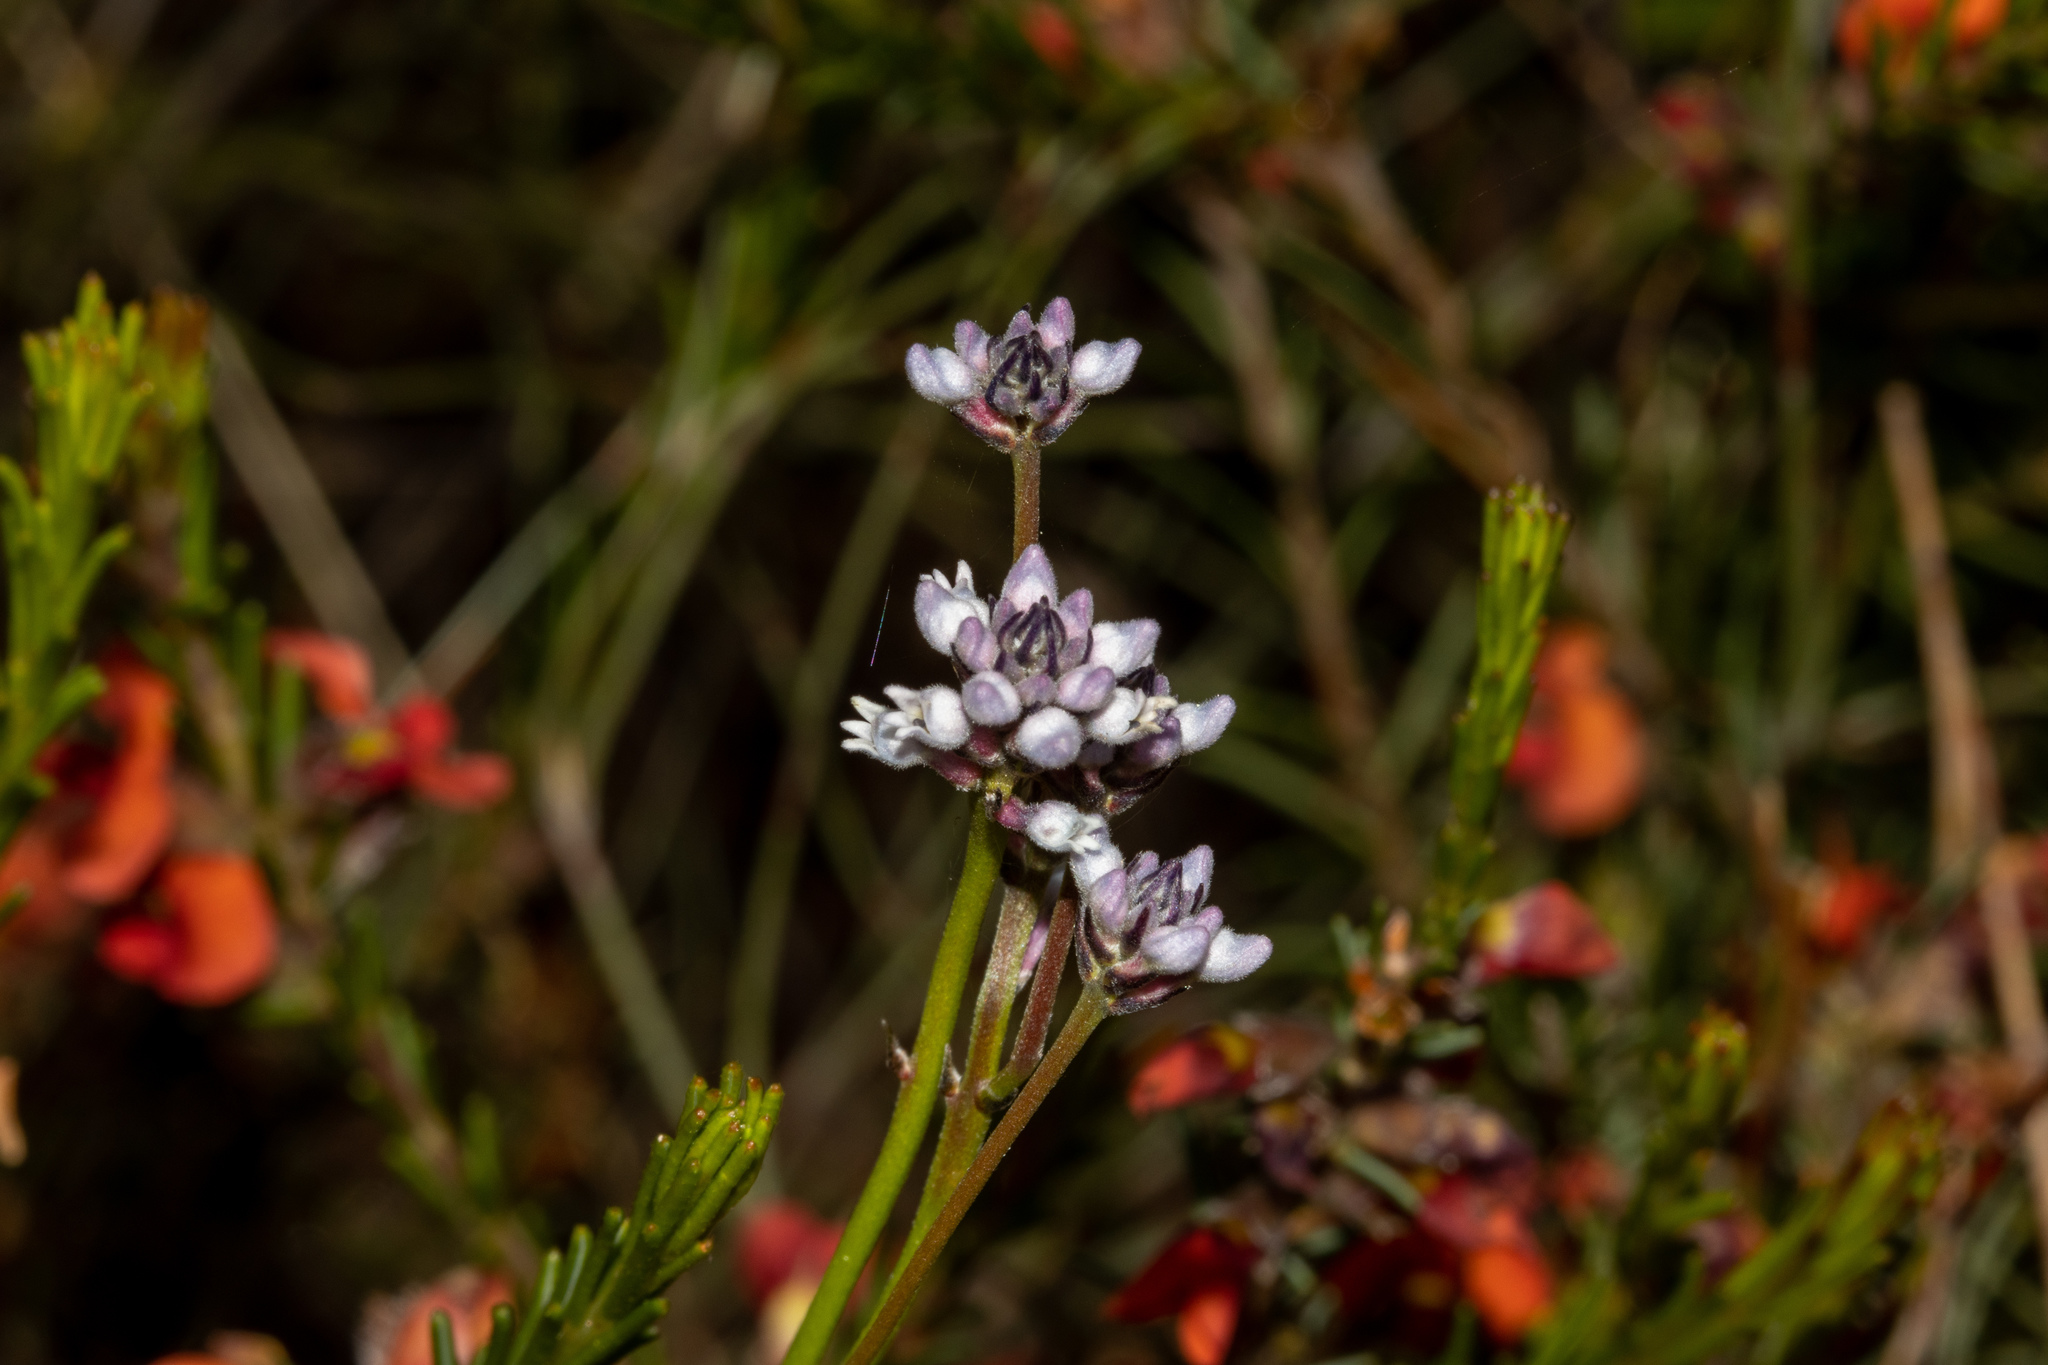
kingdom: Plantae
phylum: Tracheophyta
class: Magnoliopsida
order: Proteales
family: Proteaceae
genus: Conospermum
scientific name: Conospermum patens
